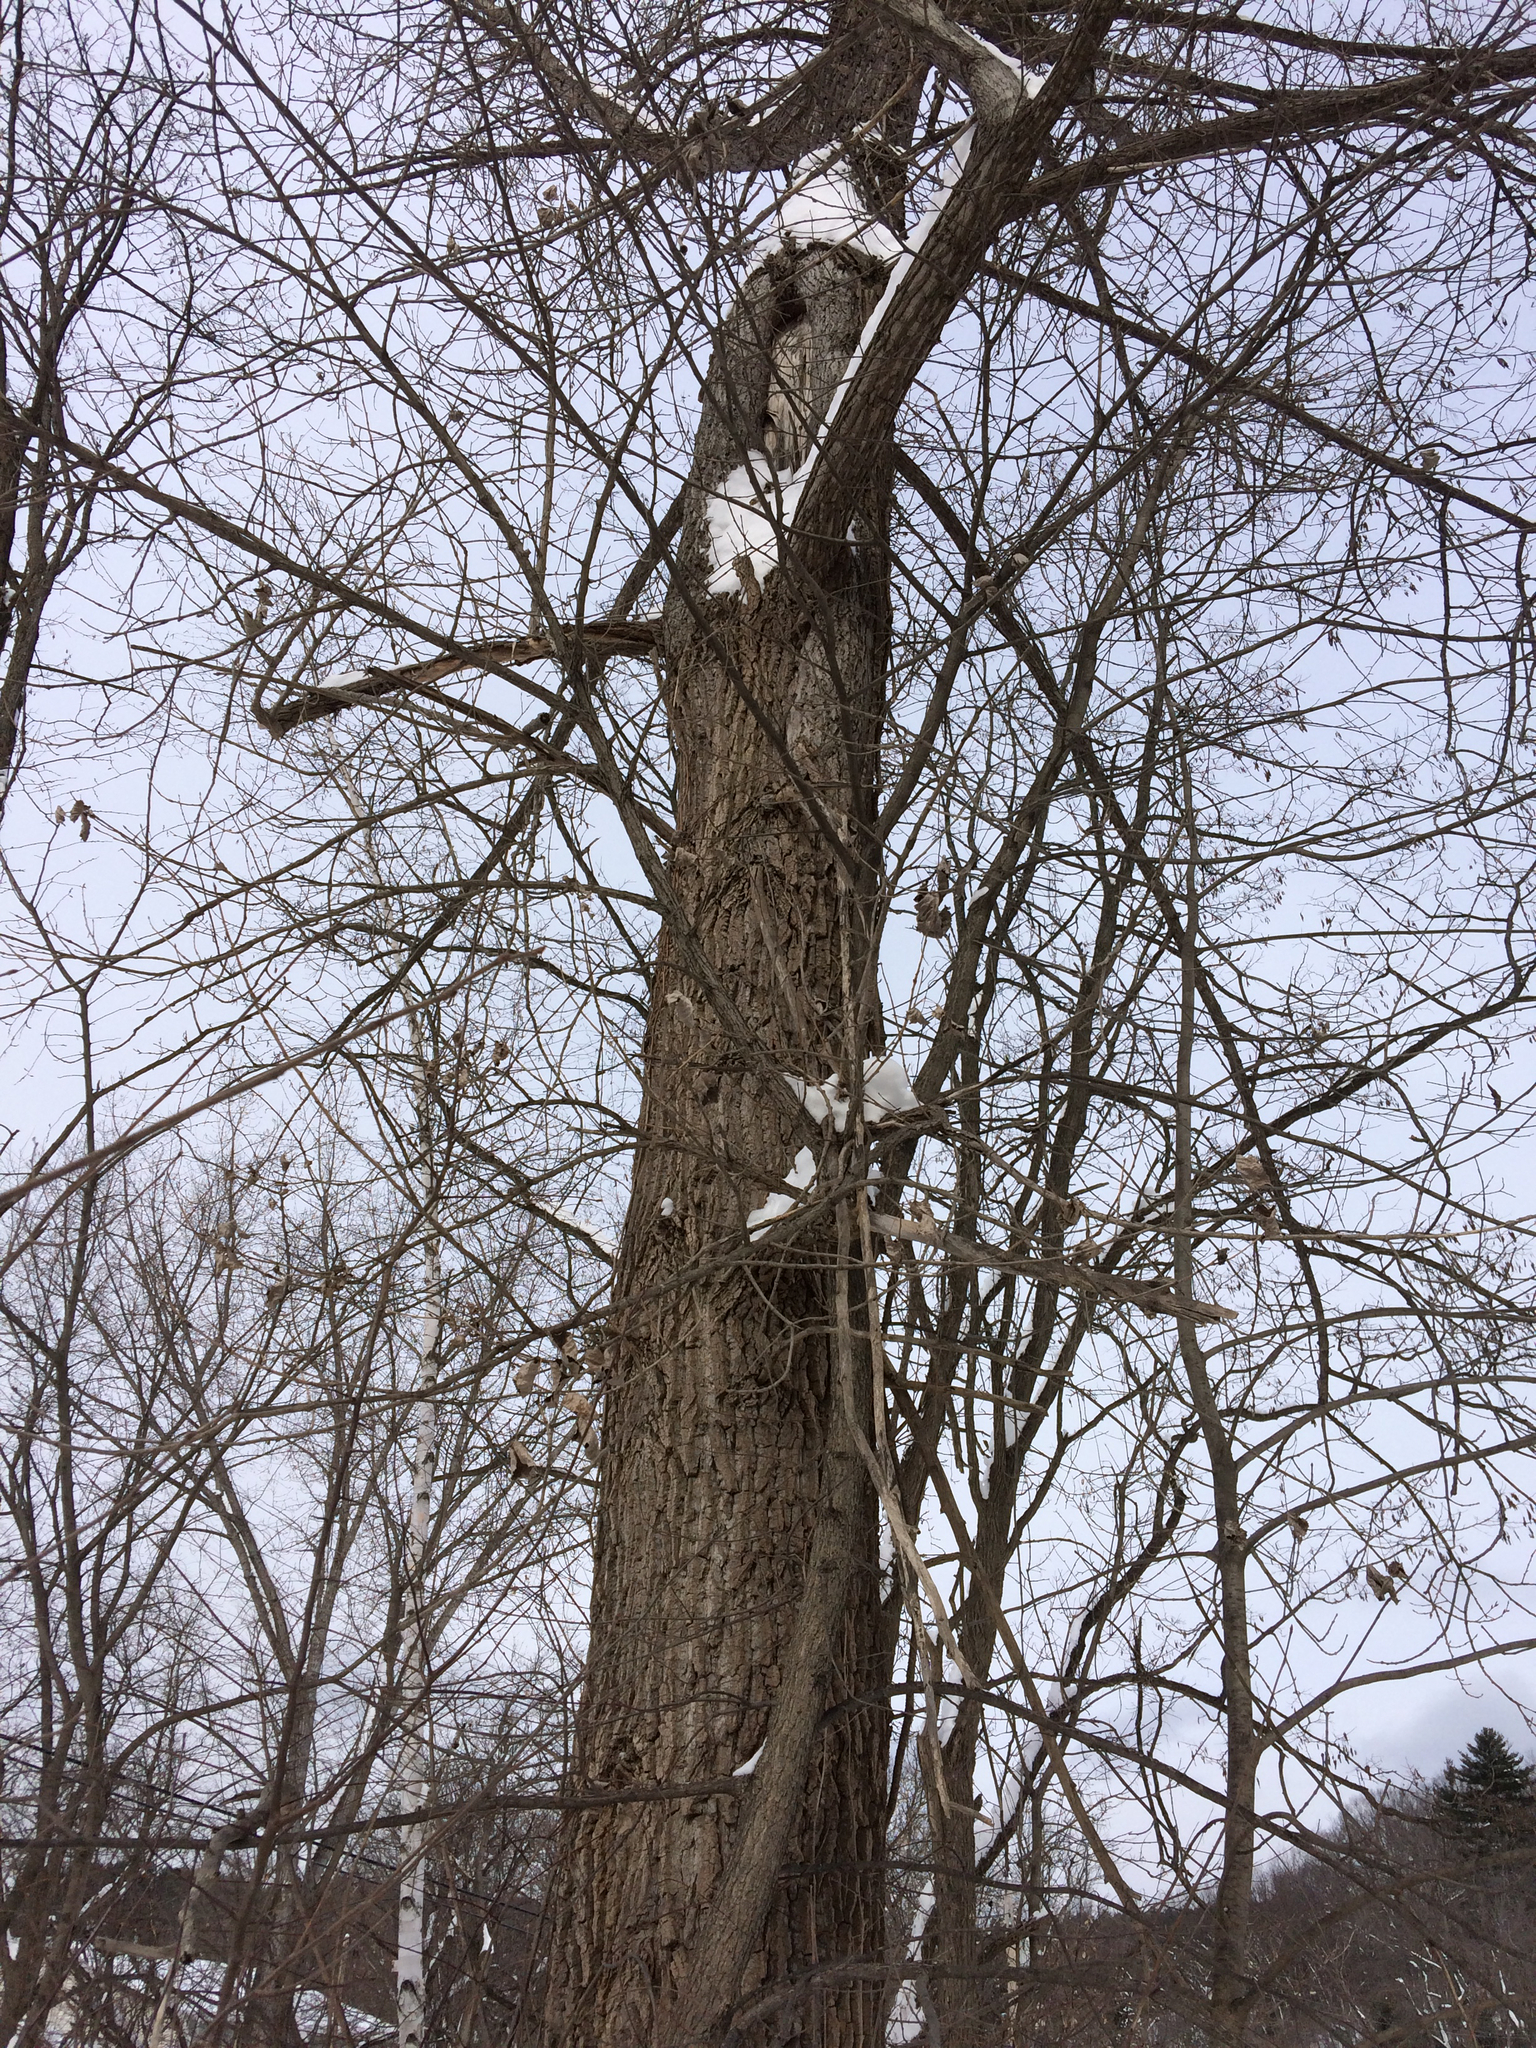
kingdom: Plantae
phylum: Tracheophyta
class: Magnoliopsida
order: Malpighiales
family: Salicaceae
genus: Populus
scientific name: Populus deltoides
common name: Eastern cottonwood
